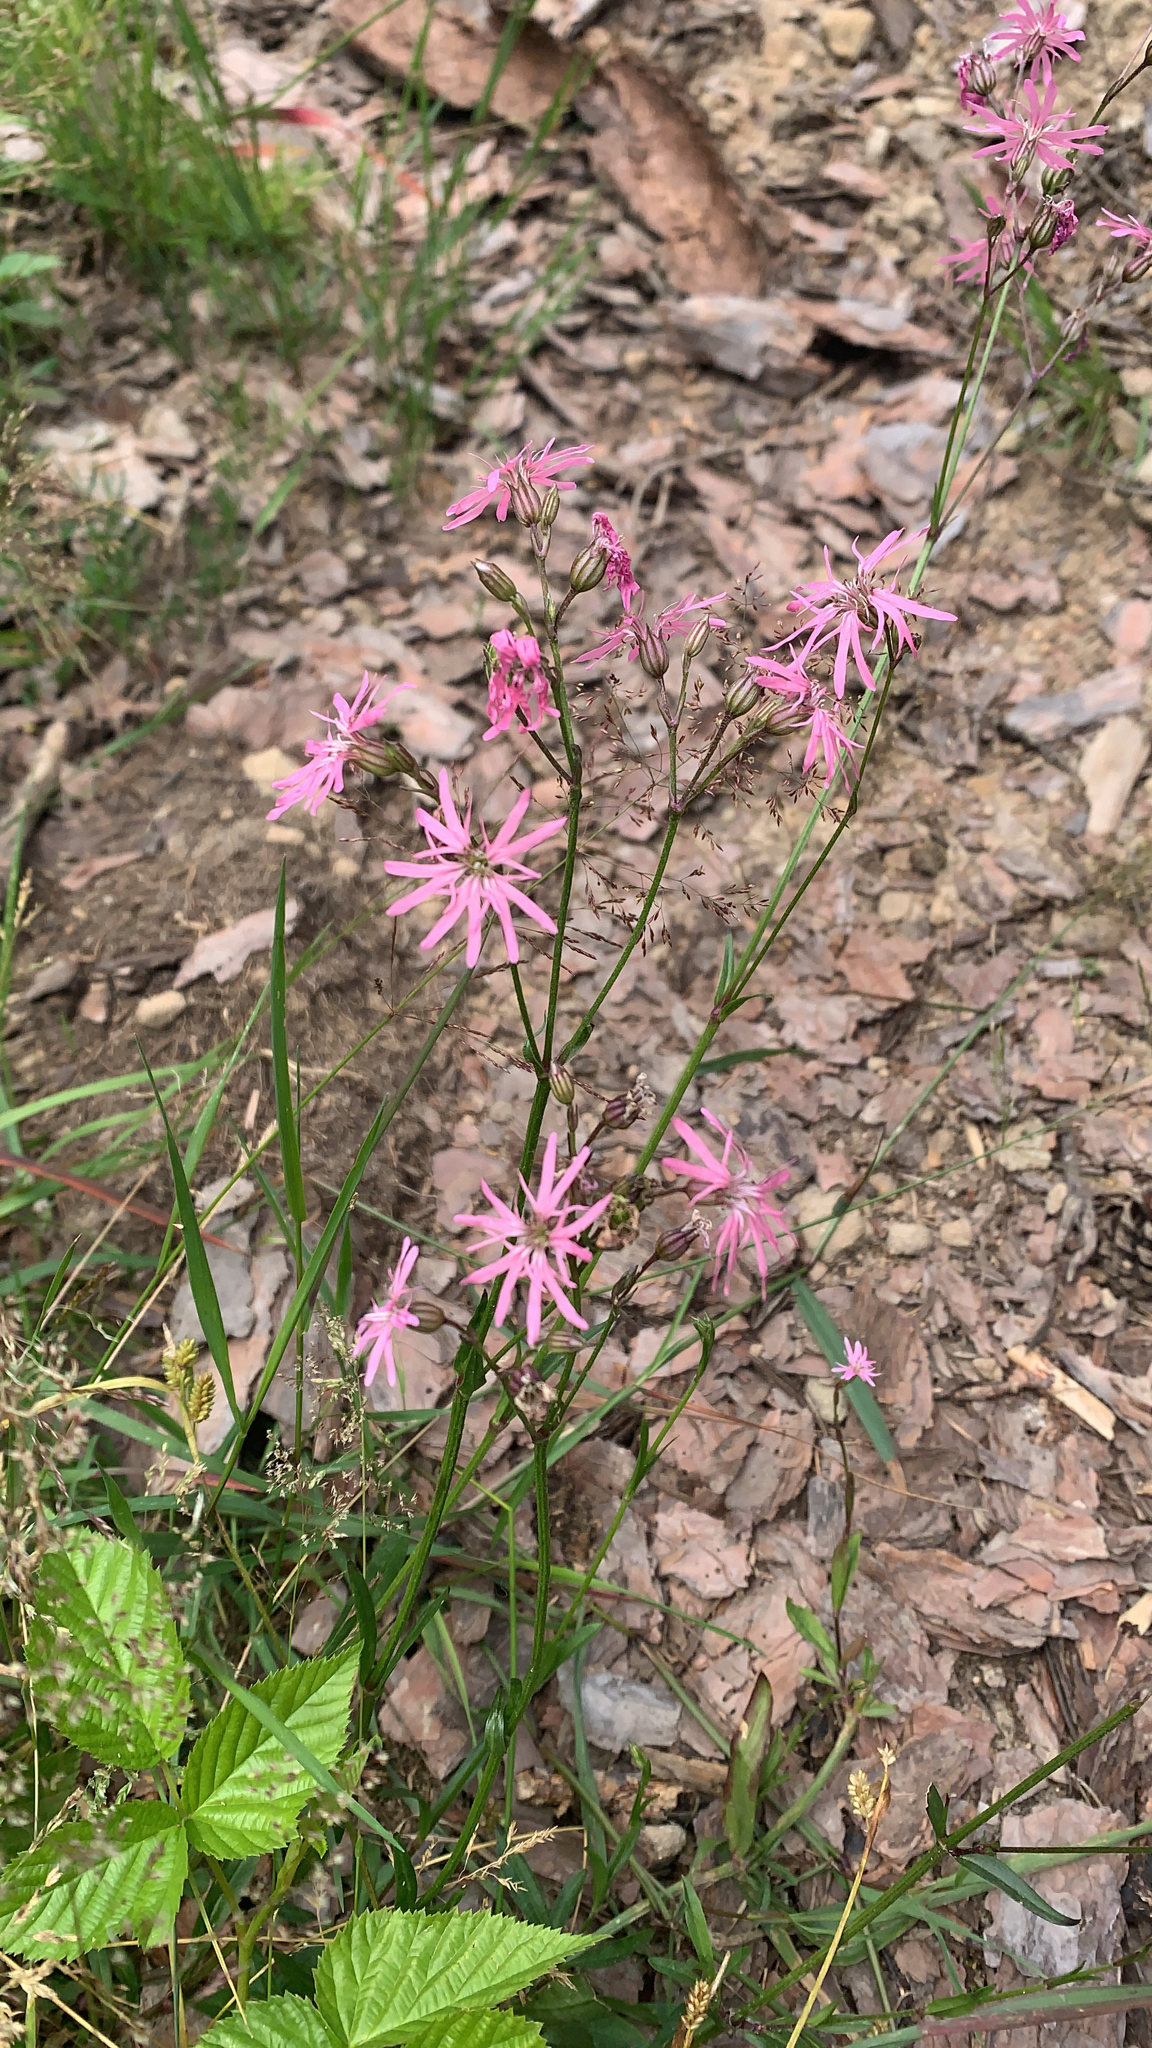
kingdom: Plantae
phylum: Tracheophyta
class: Magnoliopsida
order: Caryophyllales
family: Caryophyllaceae
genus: Silene
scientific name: Silene flos-cuculi
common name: Ragged-robin
